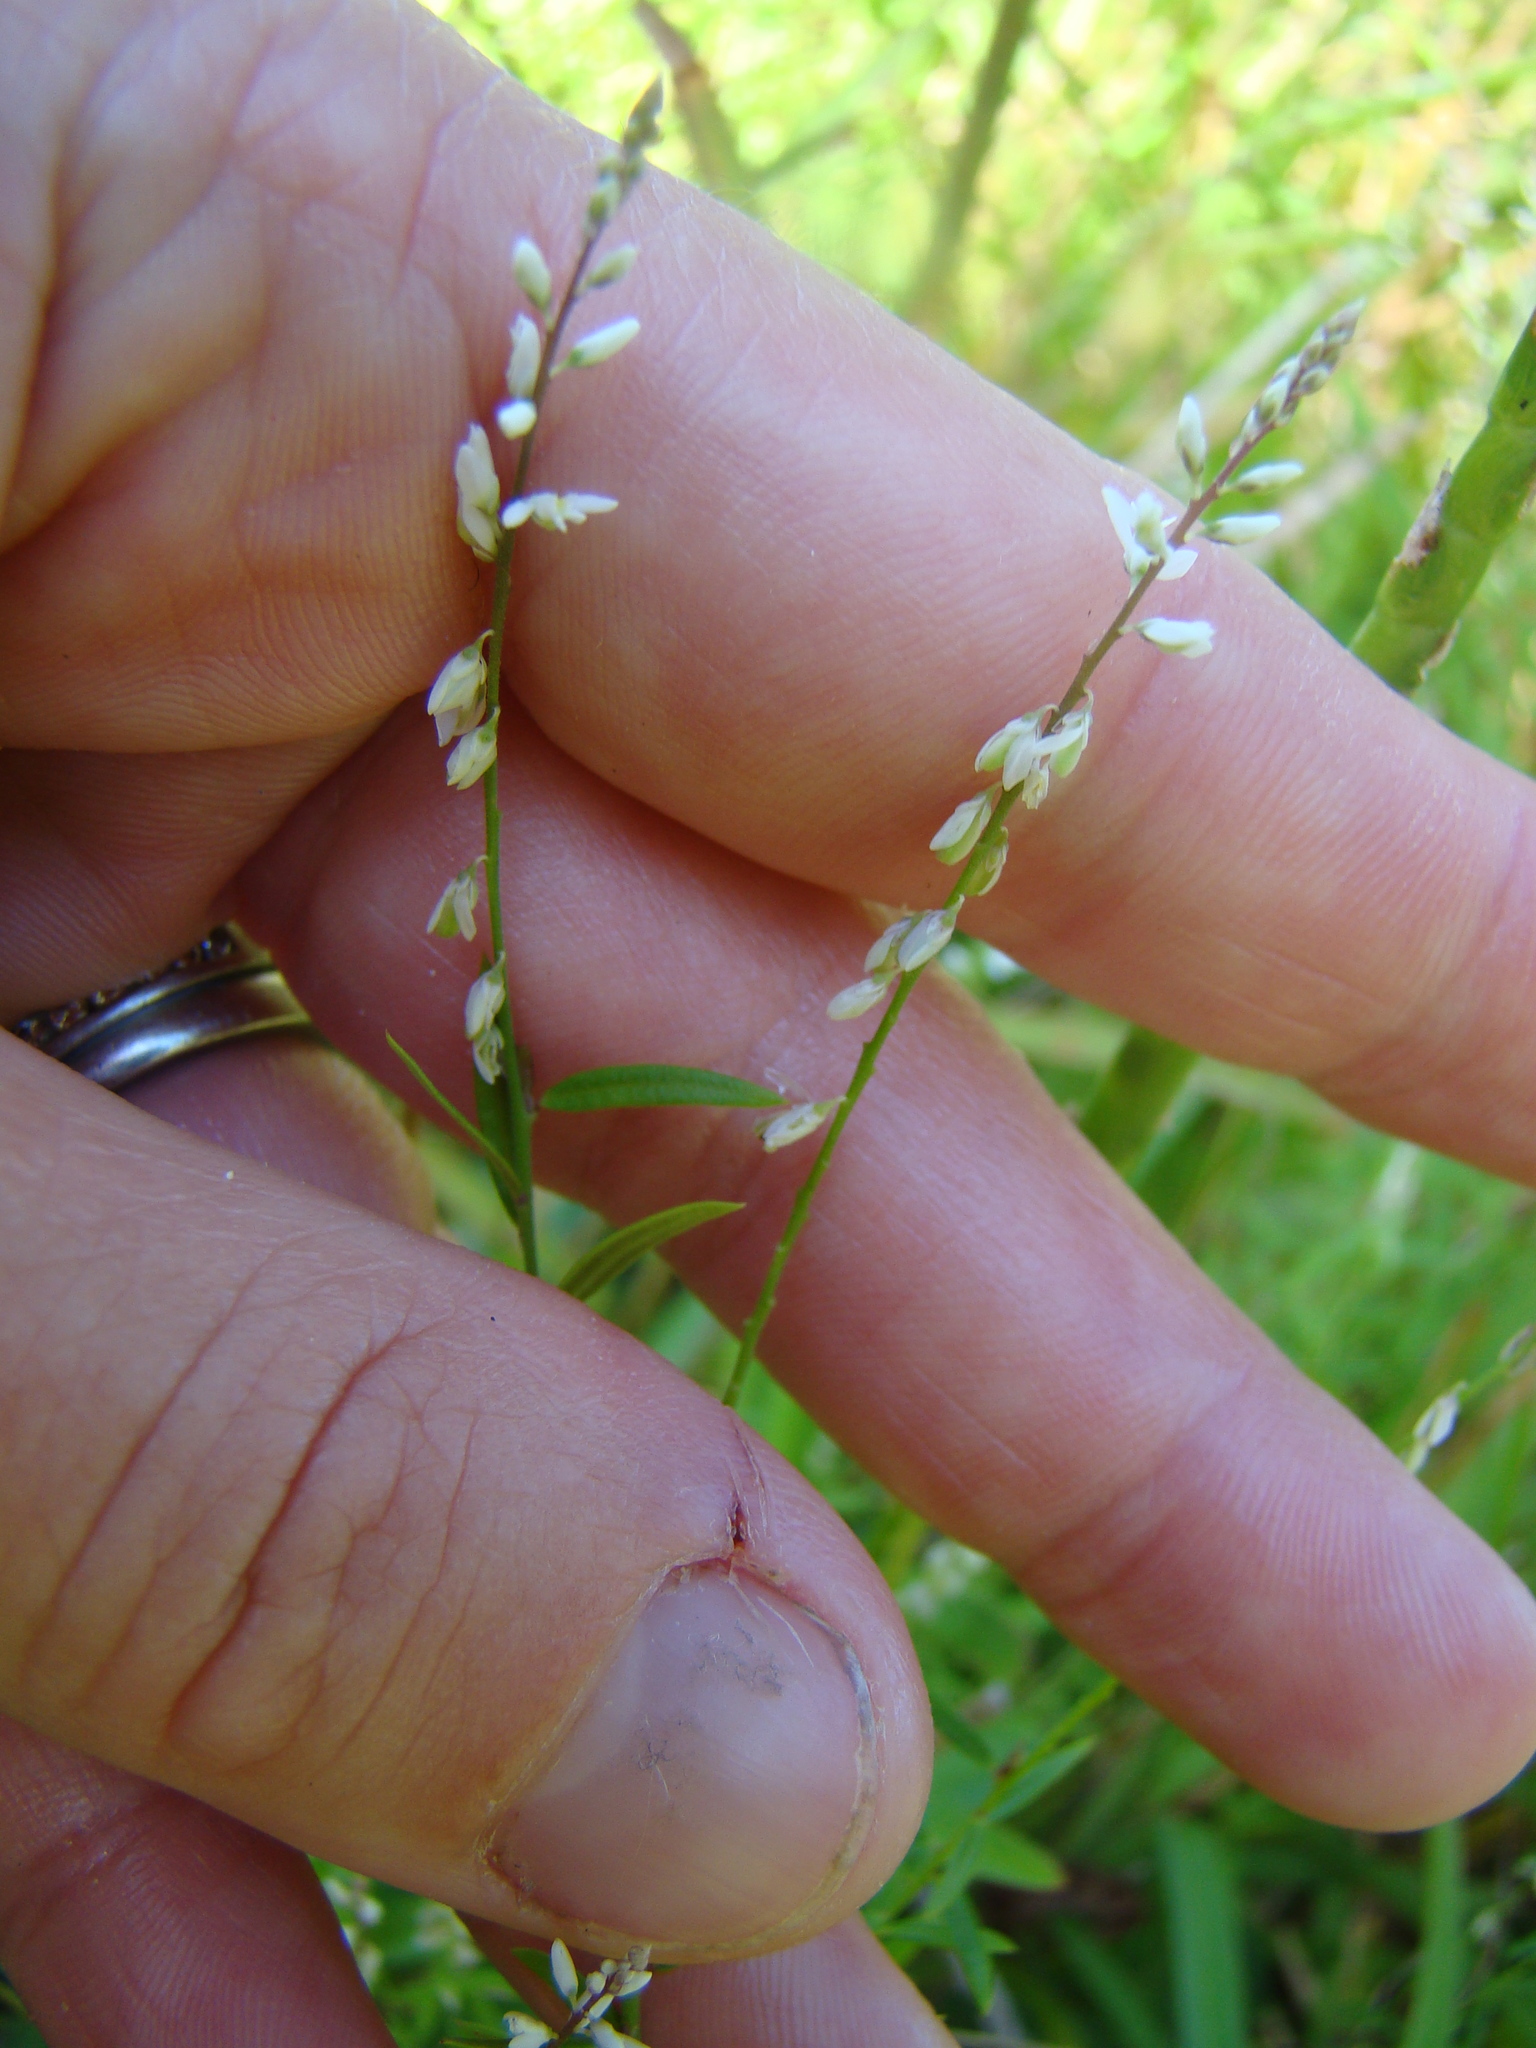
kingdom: Plantae
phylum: Tracheophyta
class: Magnoliopsida
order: Fabales
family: Polygalaceae
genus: Polygala
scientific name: Polygala paniculata
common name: Orosne
